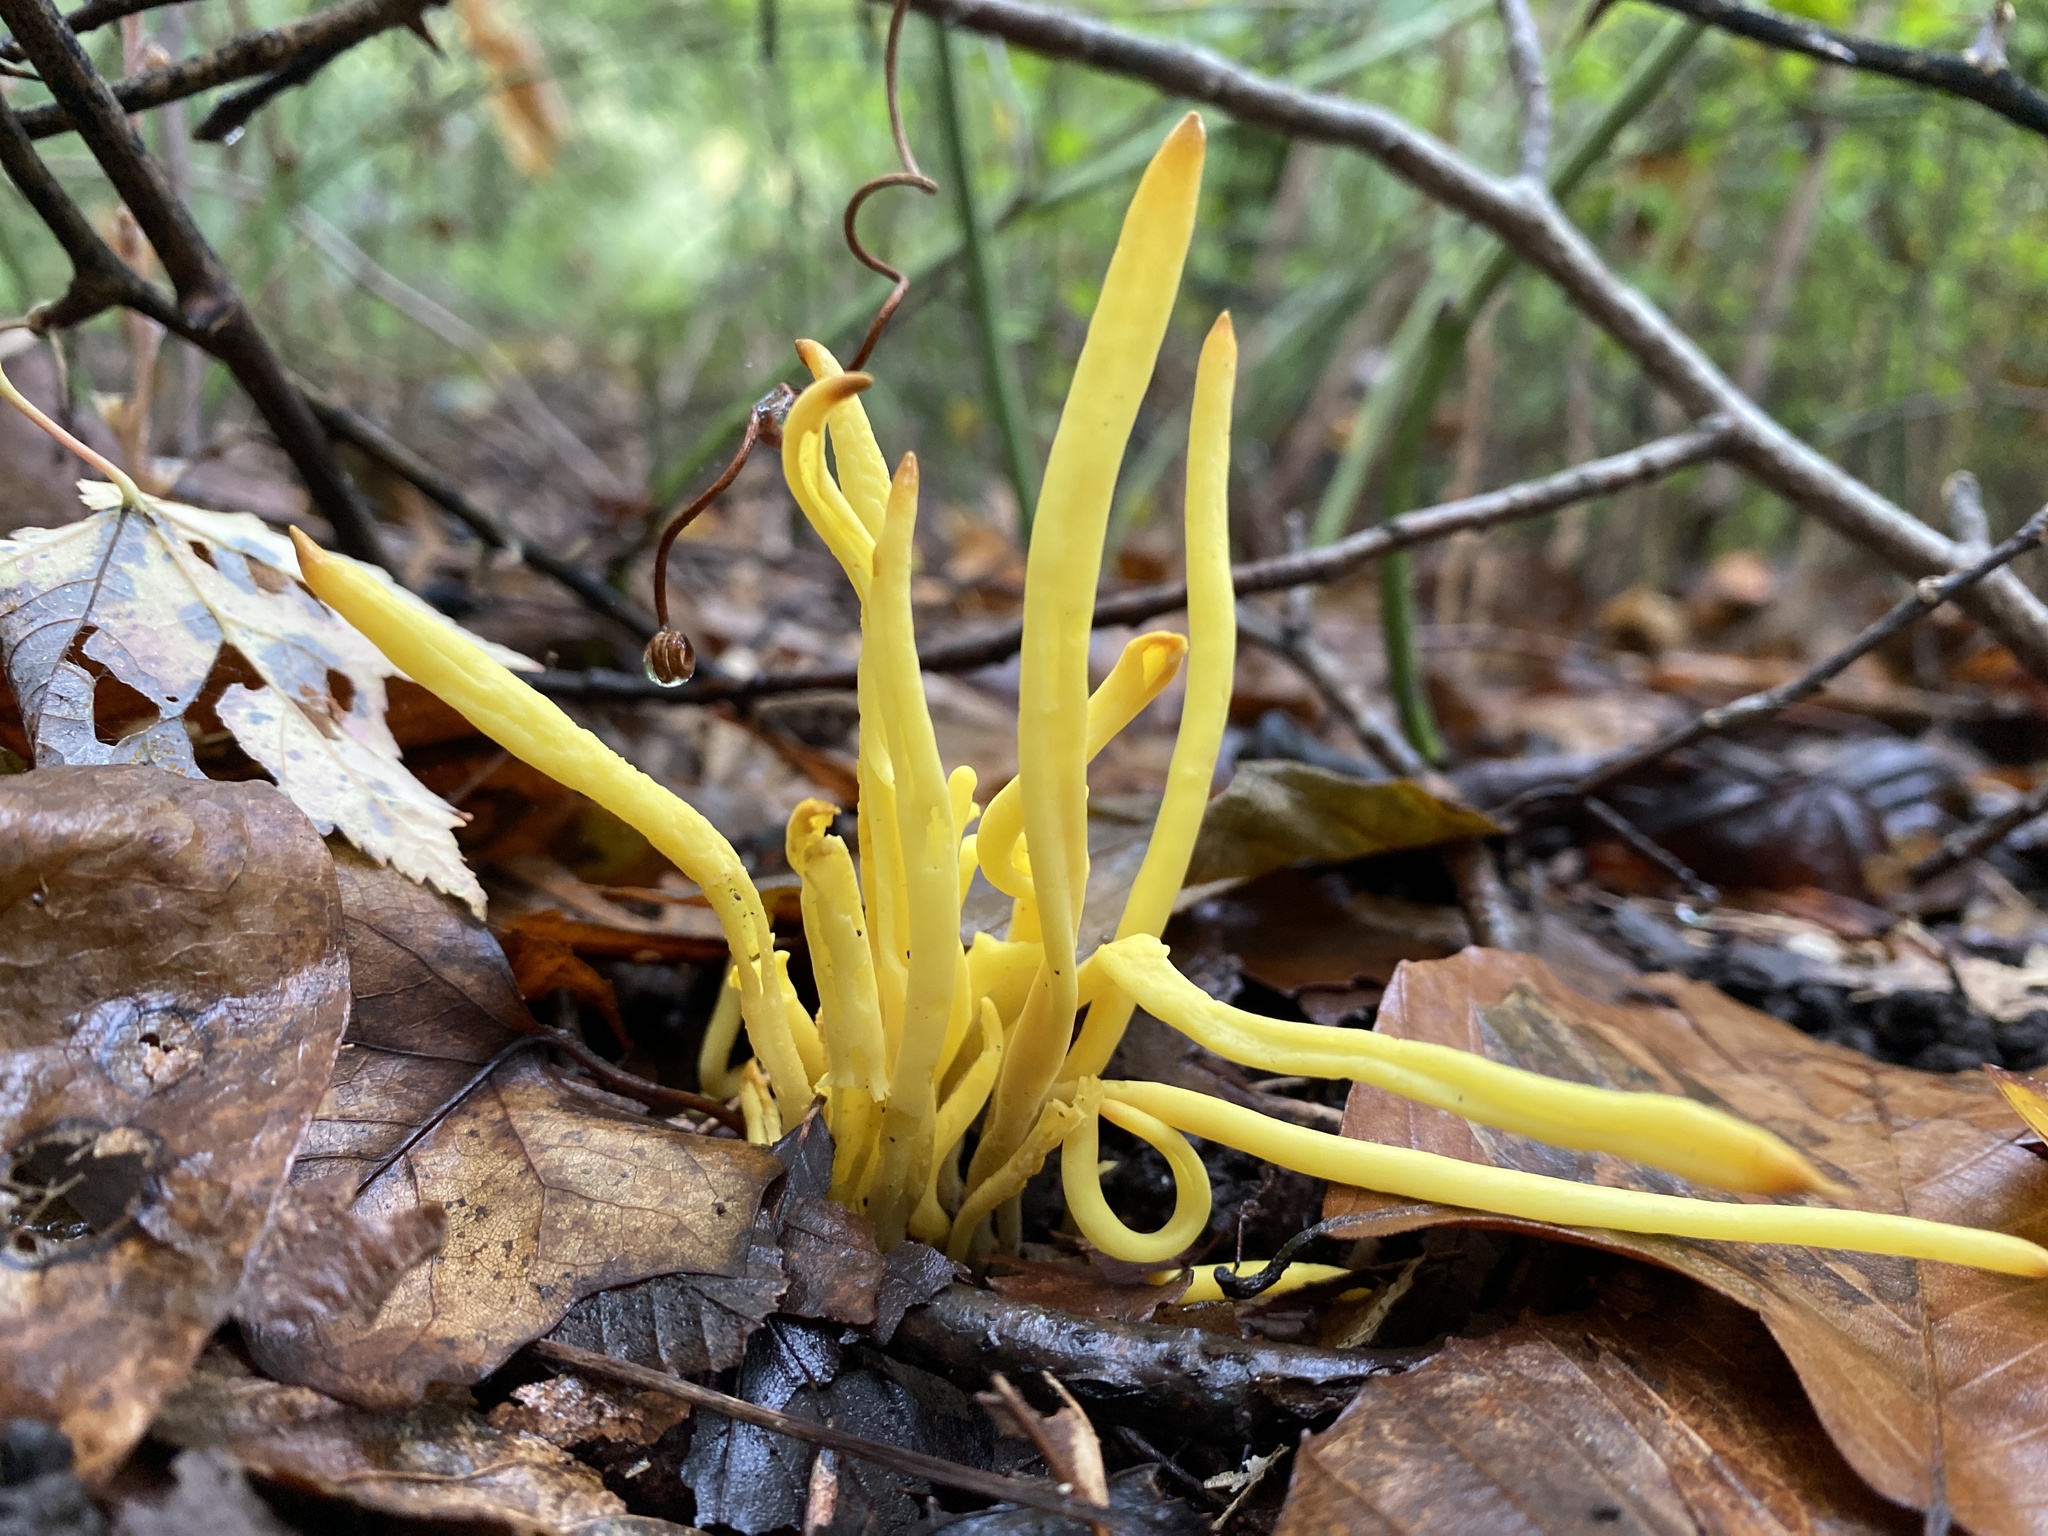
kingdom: Fungi
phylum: Basidiomycota
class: Agaricomycetes
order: Agaricales
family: Clavariaceae
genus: Clavulinopsis
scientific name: Clavulinopsis fusiformis
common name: Golden spindles
